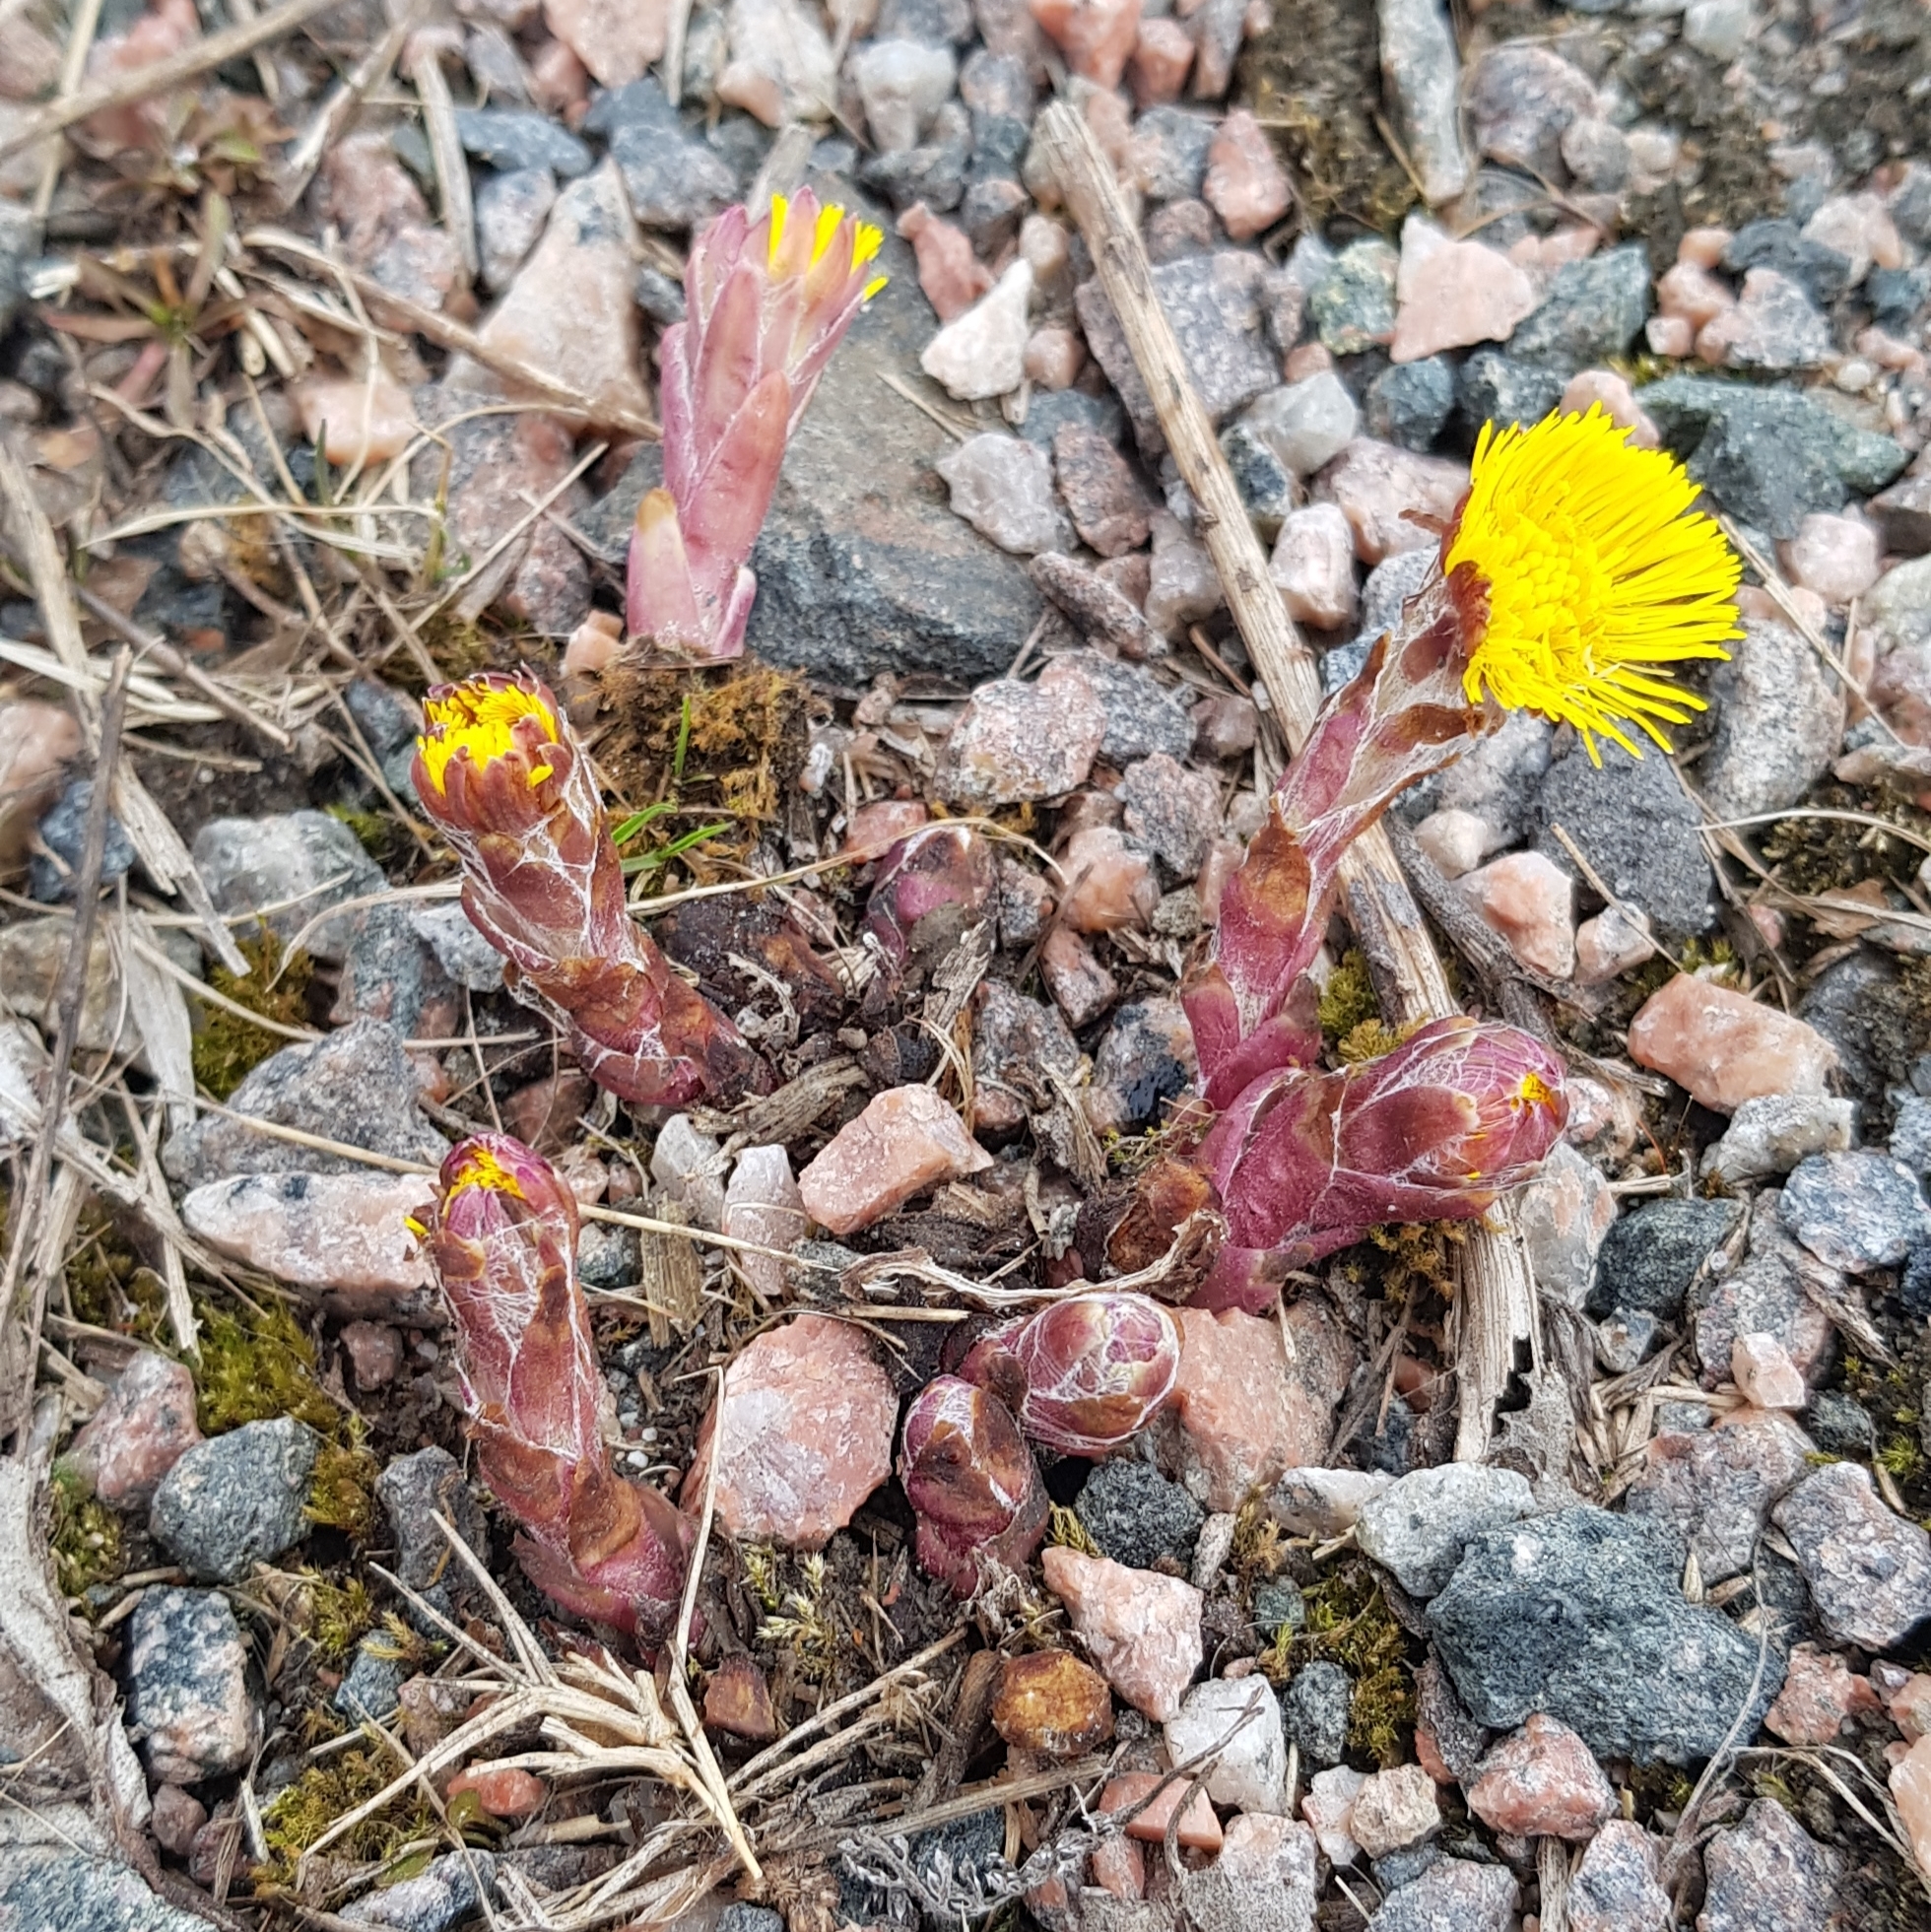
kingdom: Plantae
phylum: Tracheophyta
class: Magnoliopsida
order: Asterales
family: Asteraceae
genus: Tussilago
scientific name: Tussilago farfara
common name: Coltsfoot
